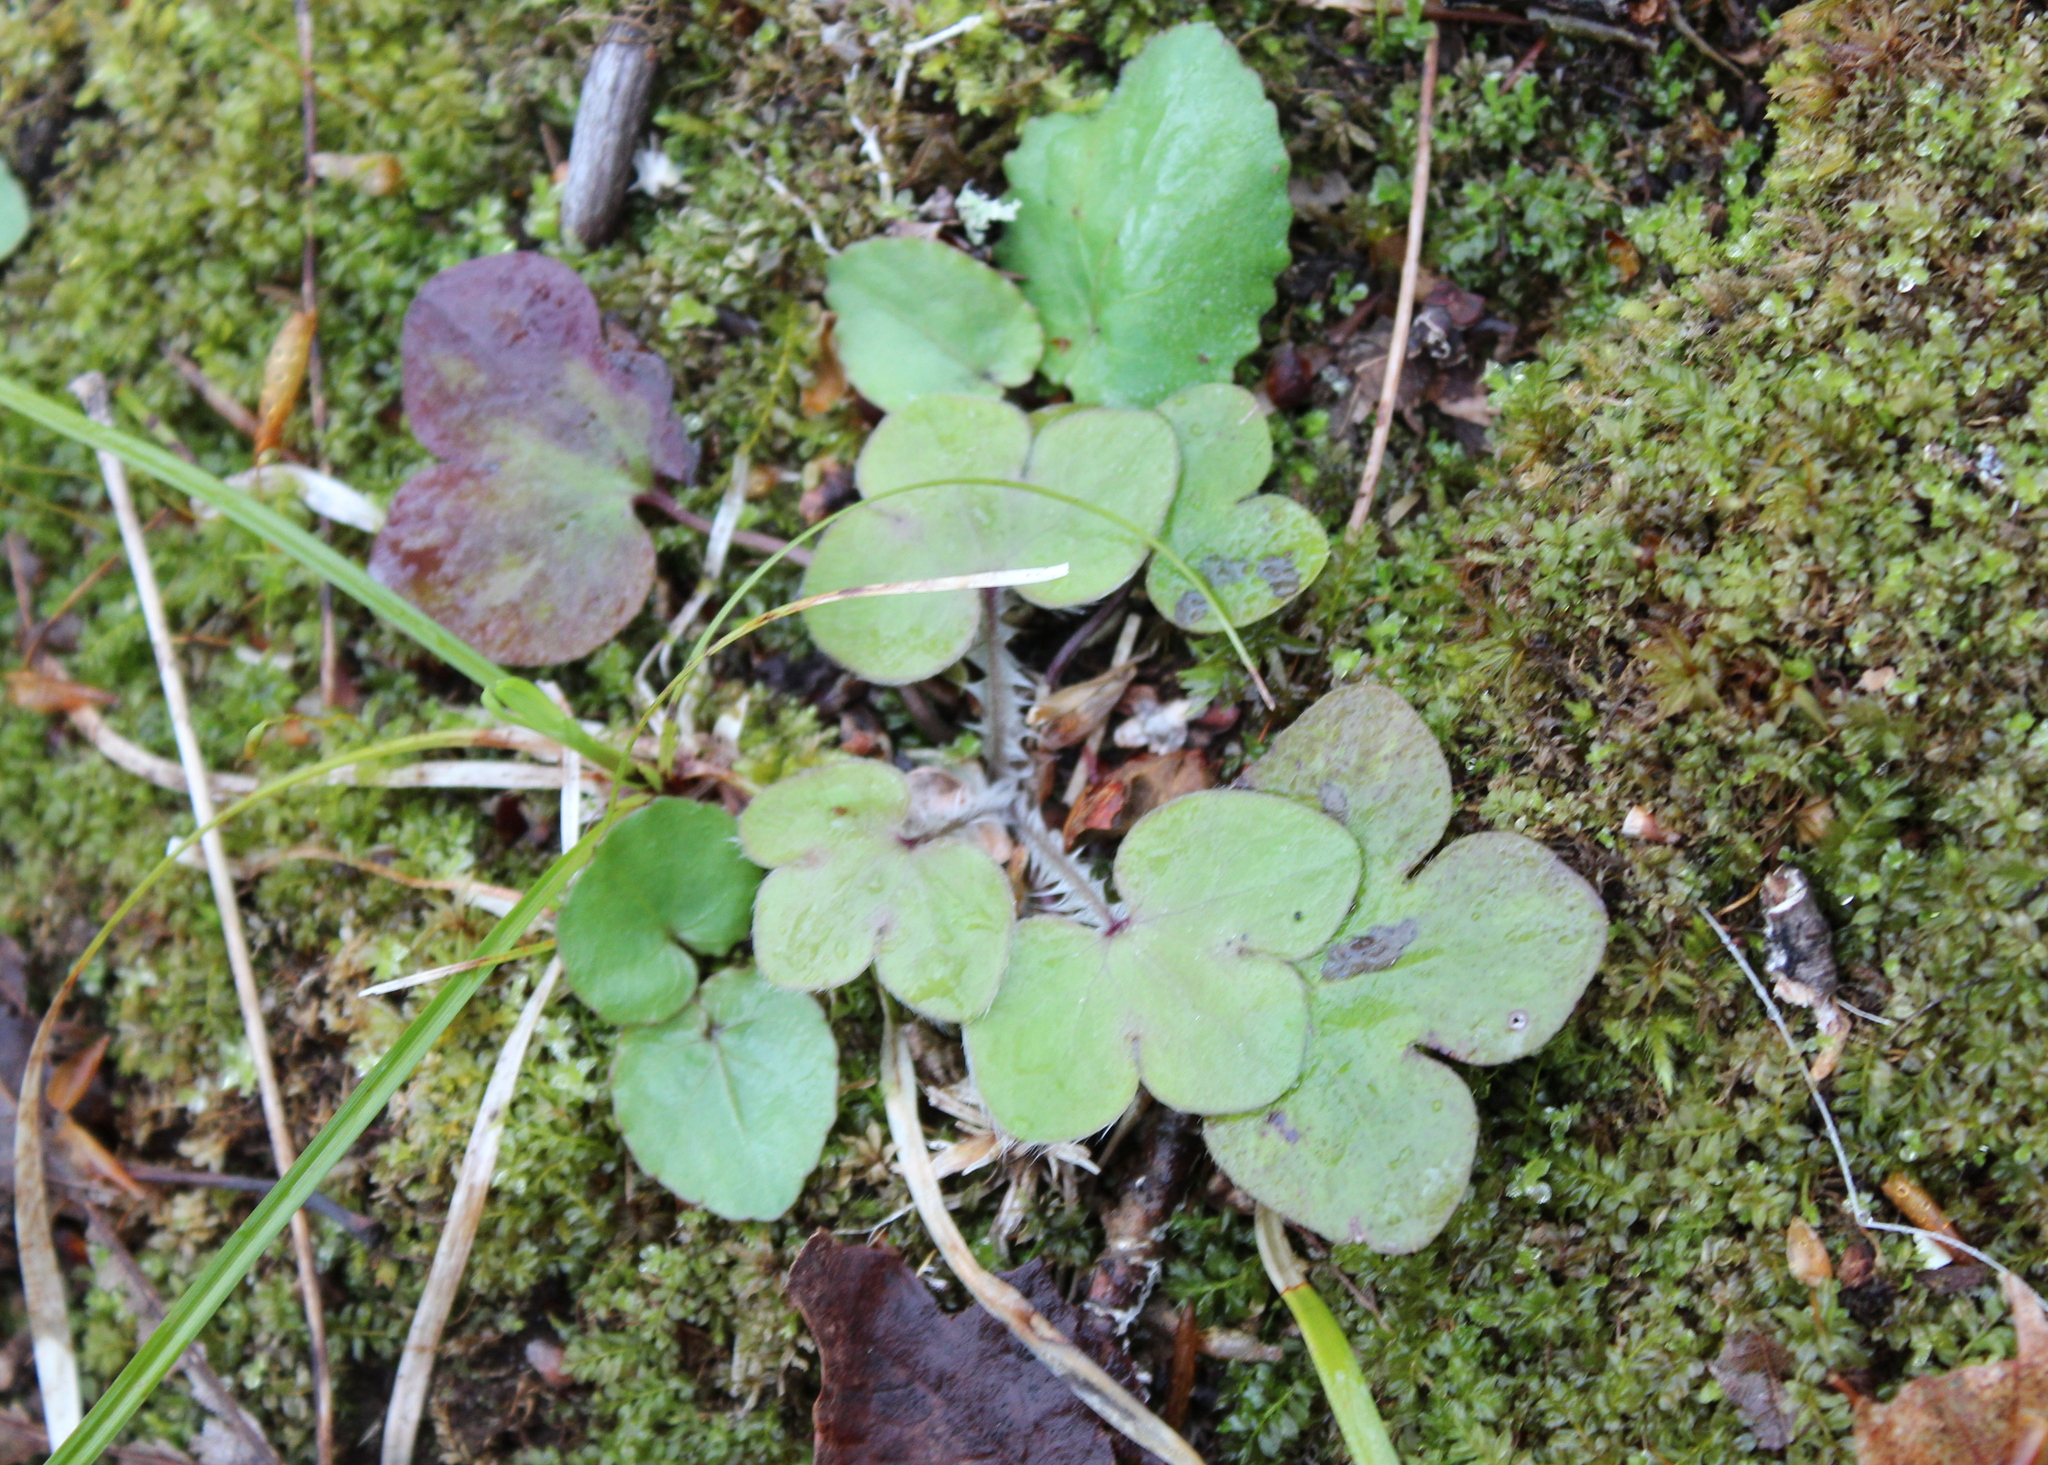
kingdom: Plantae
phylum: Tracheophyta
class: Magnoliopsida
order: Ranunculales
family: Ranunculaceae
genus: Hepatica
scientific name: Hepatica americana
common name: American hepatica
